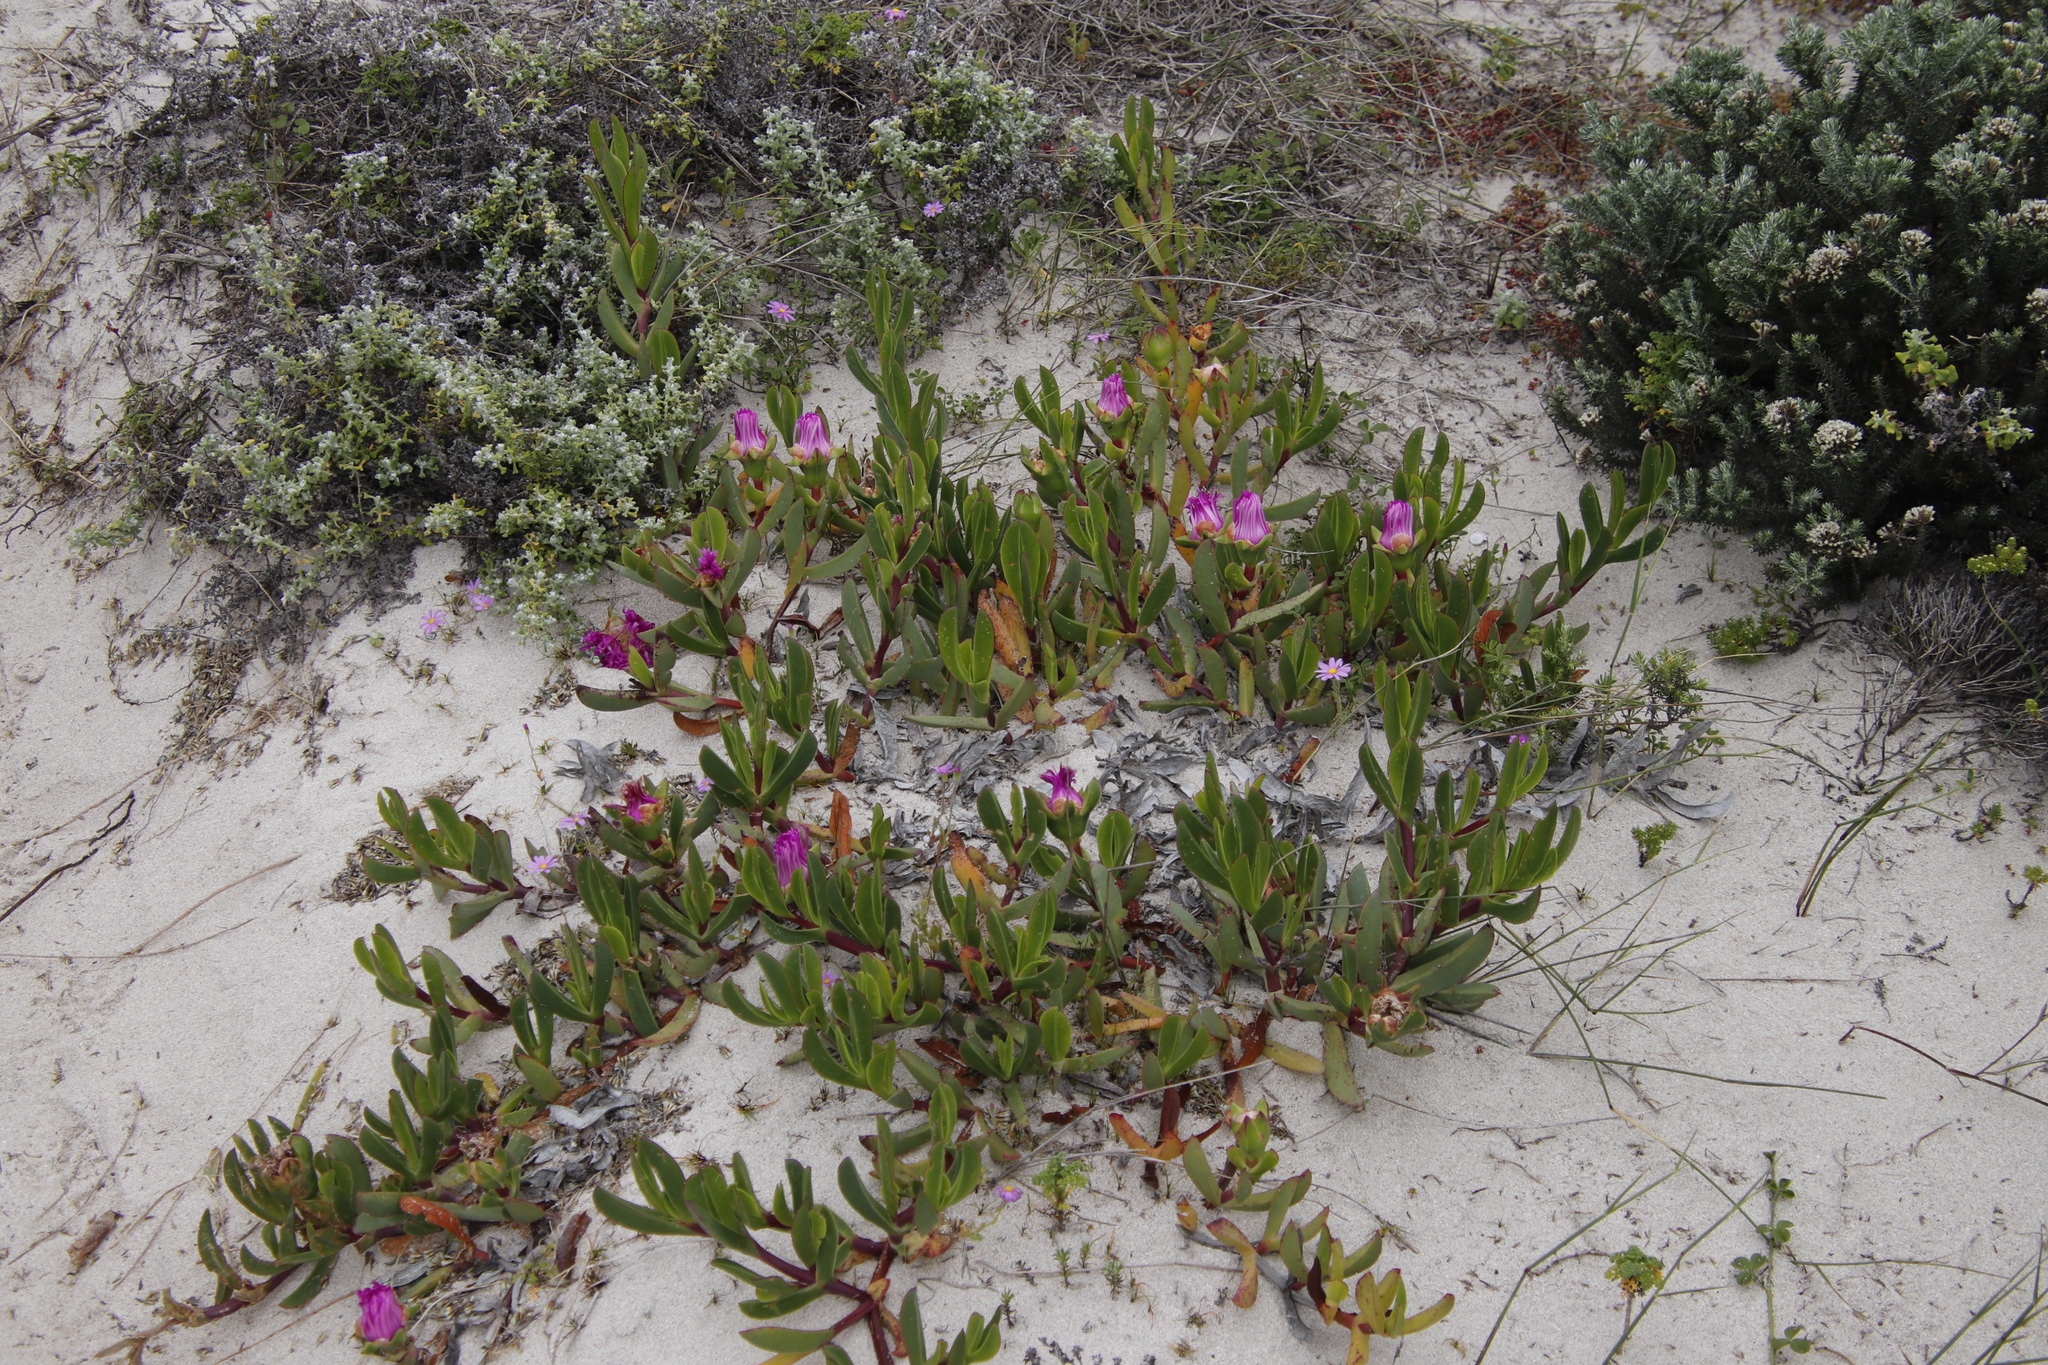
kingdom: Plantae
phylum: Tracheophyta
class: Magnoliopsida
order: Caryophyllales
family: Aizoaceae
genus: Carpobrotus
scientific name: Carpobrotus acinaciformis
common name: Sally-my-handsome
